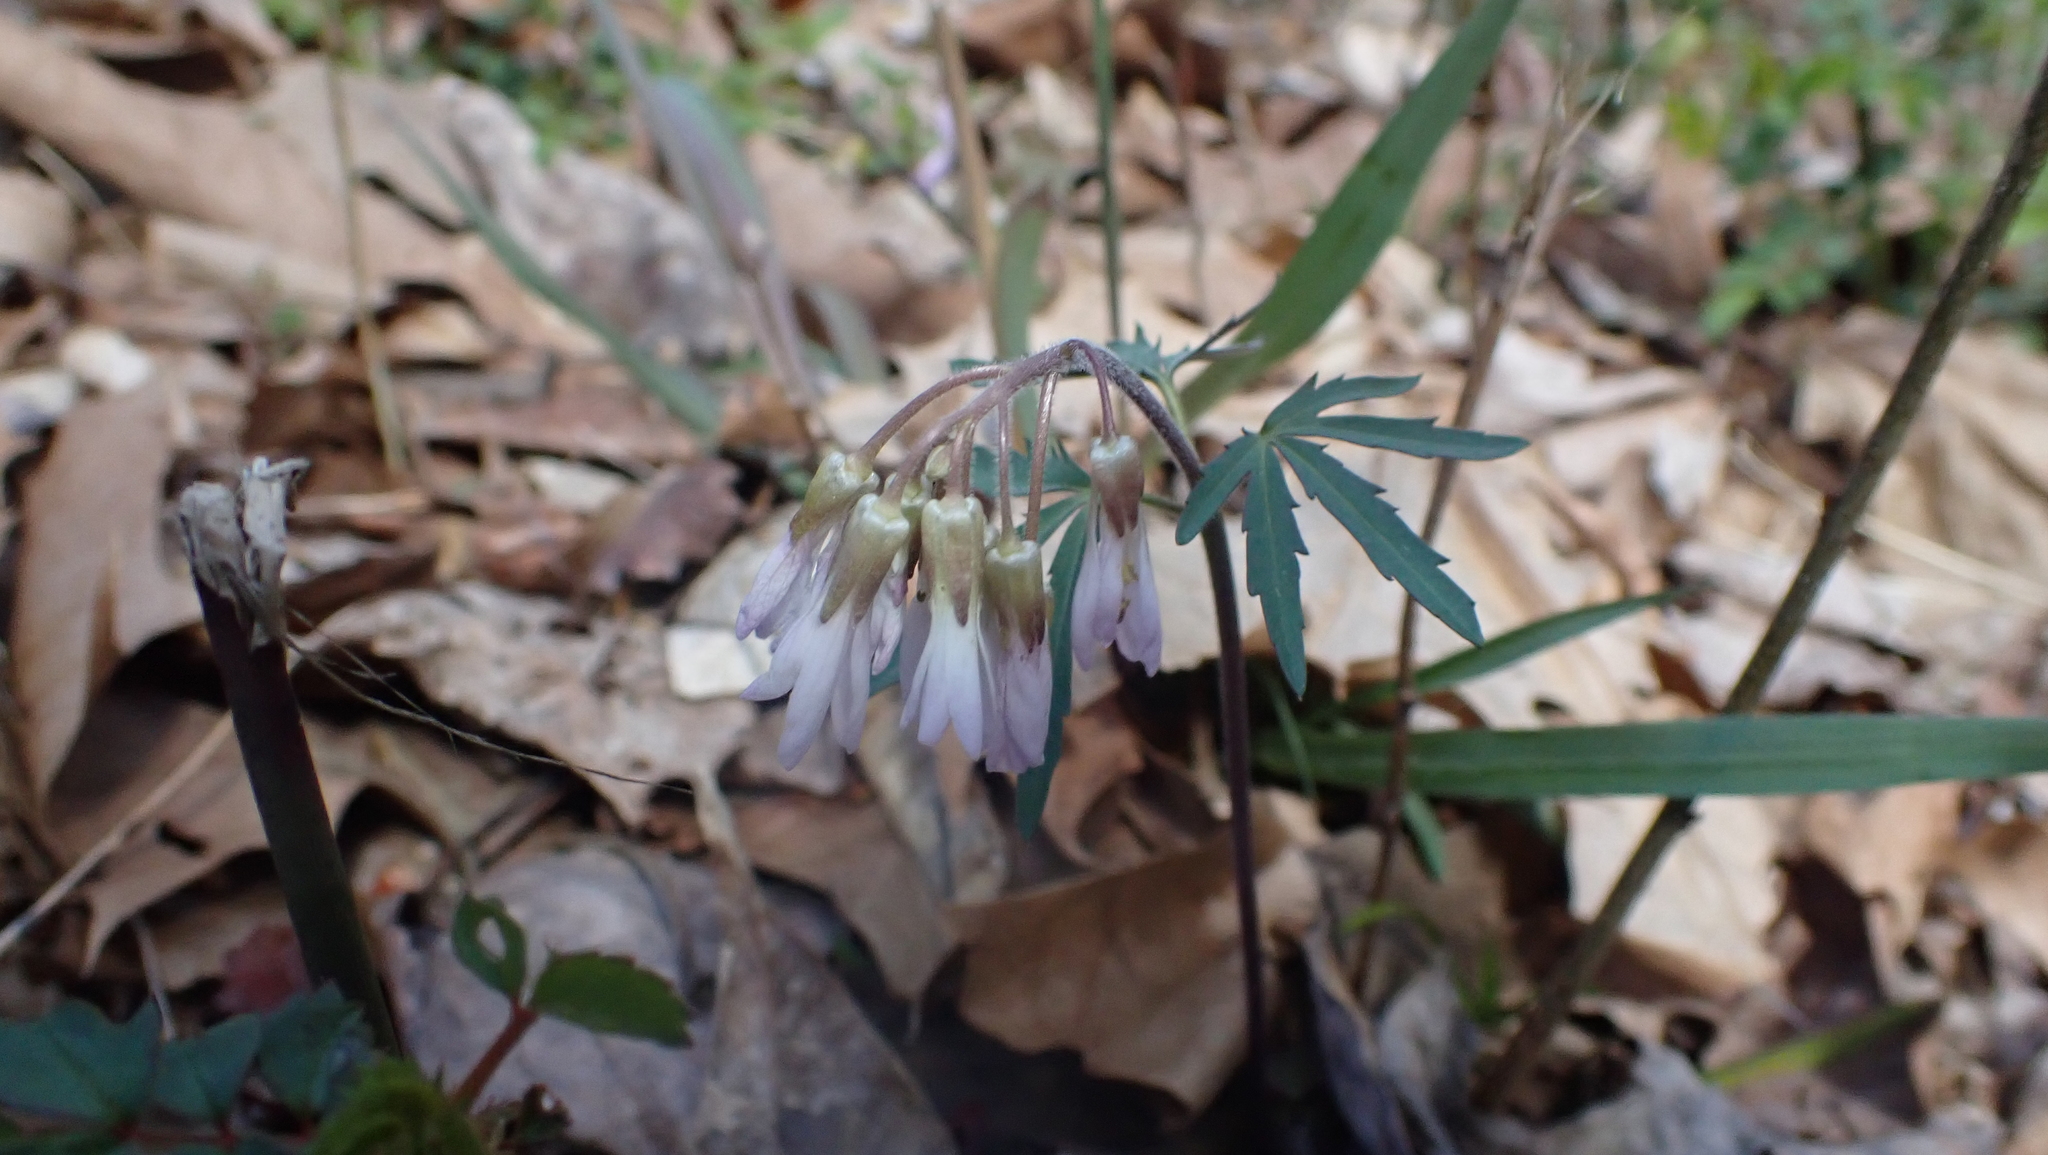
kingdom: Plantae
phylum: Tracheophyta
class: Magnoliopsida
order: Brassicales
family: Brassicaceae
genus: Cardamine
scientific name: Cardamine concatenata
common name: Cut-leaf toothcup
